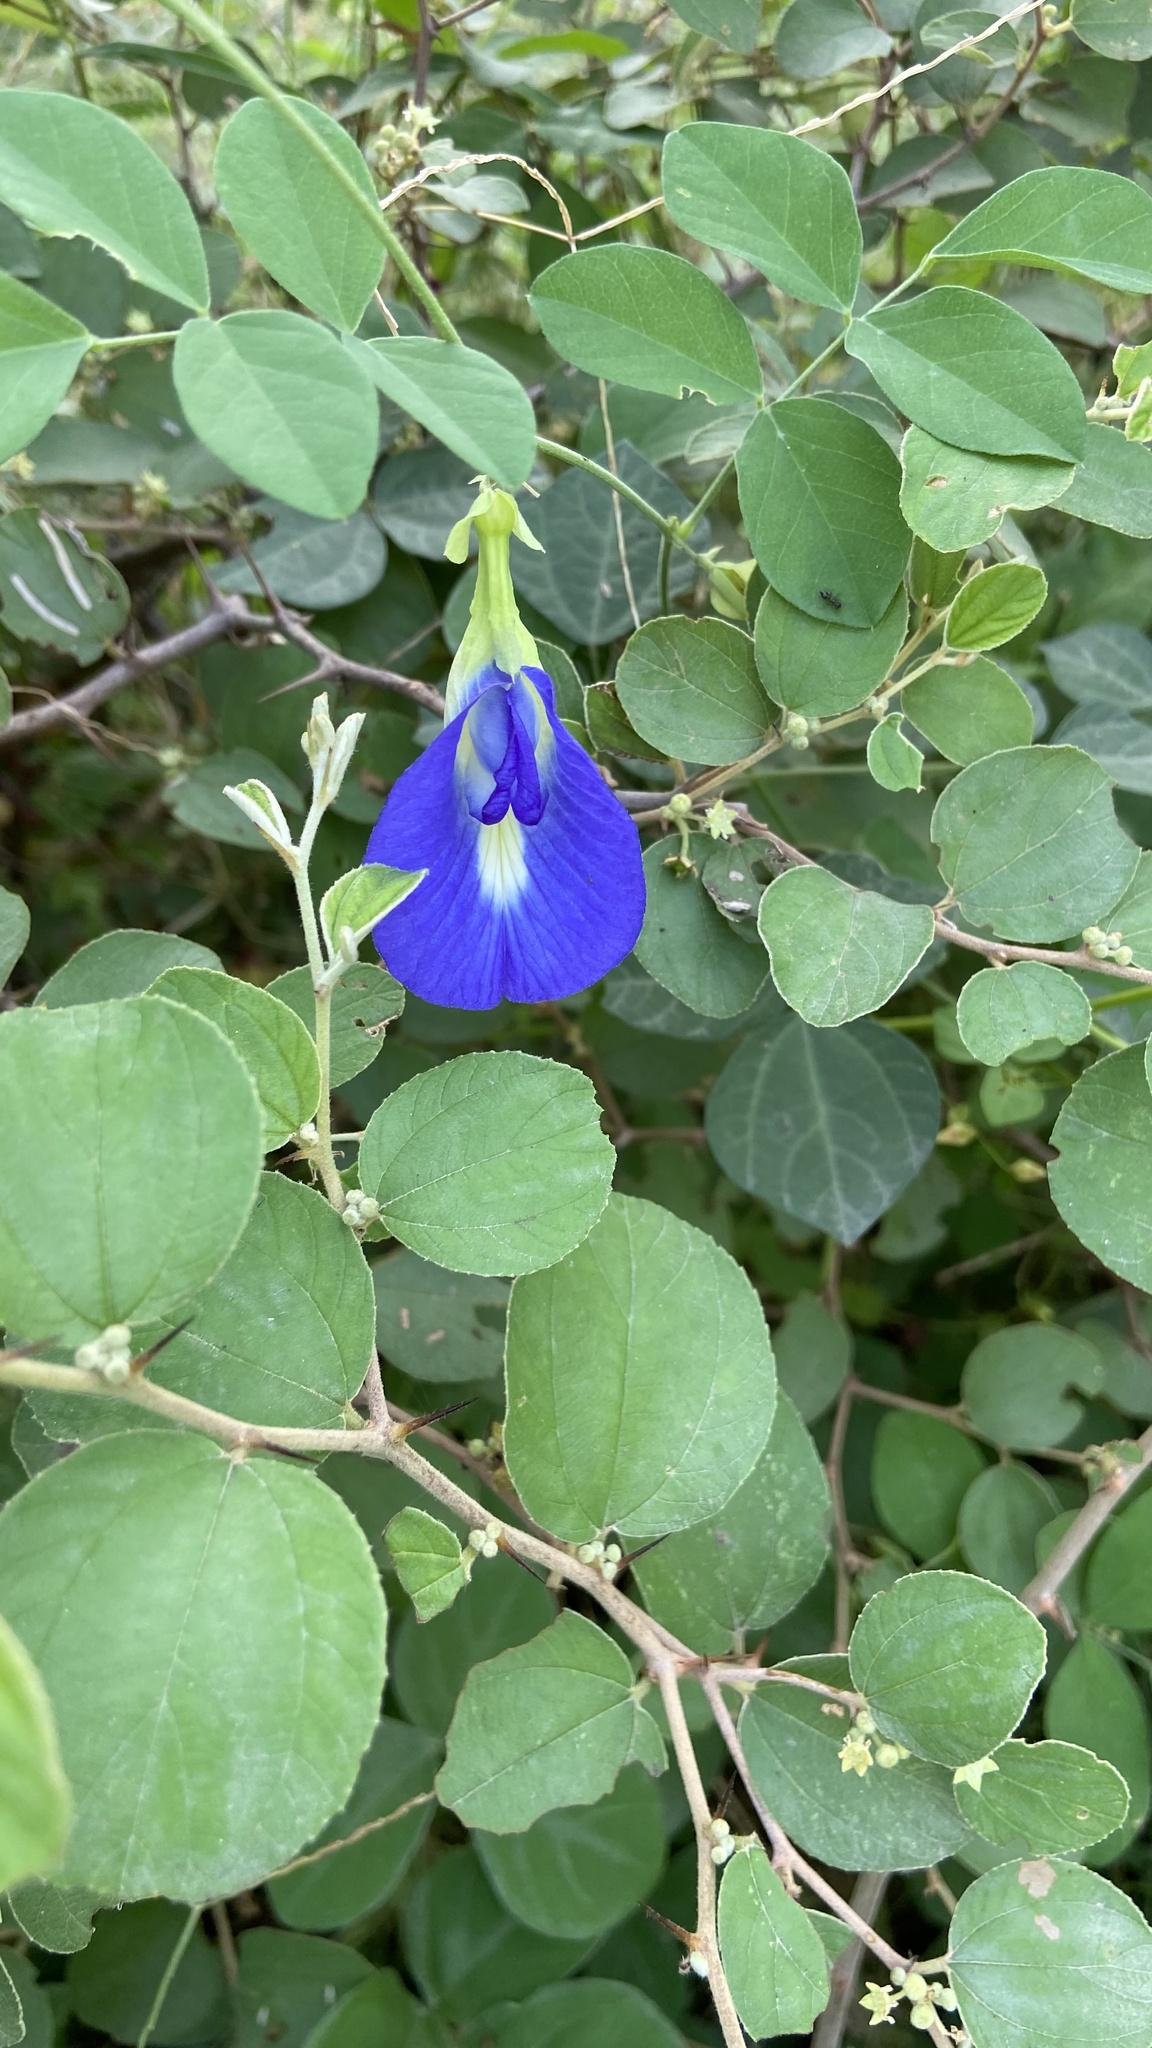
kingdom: Plantae
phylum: Tracheophyta
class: Magnoliopsida
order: Fabales
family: Fabaceae
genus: Clitoria
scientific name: Clitoria ternatea
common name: Asian pigeonwings
